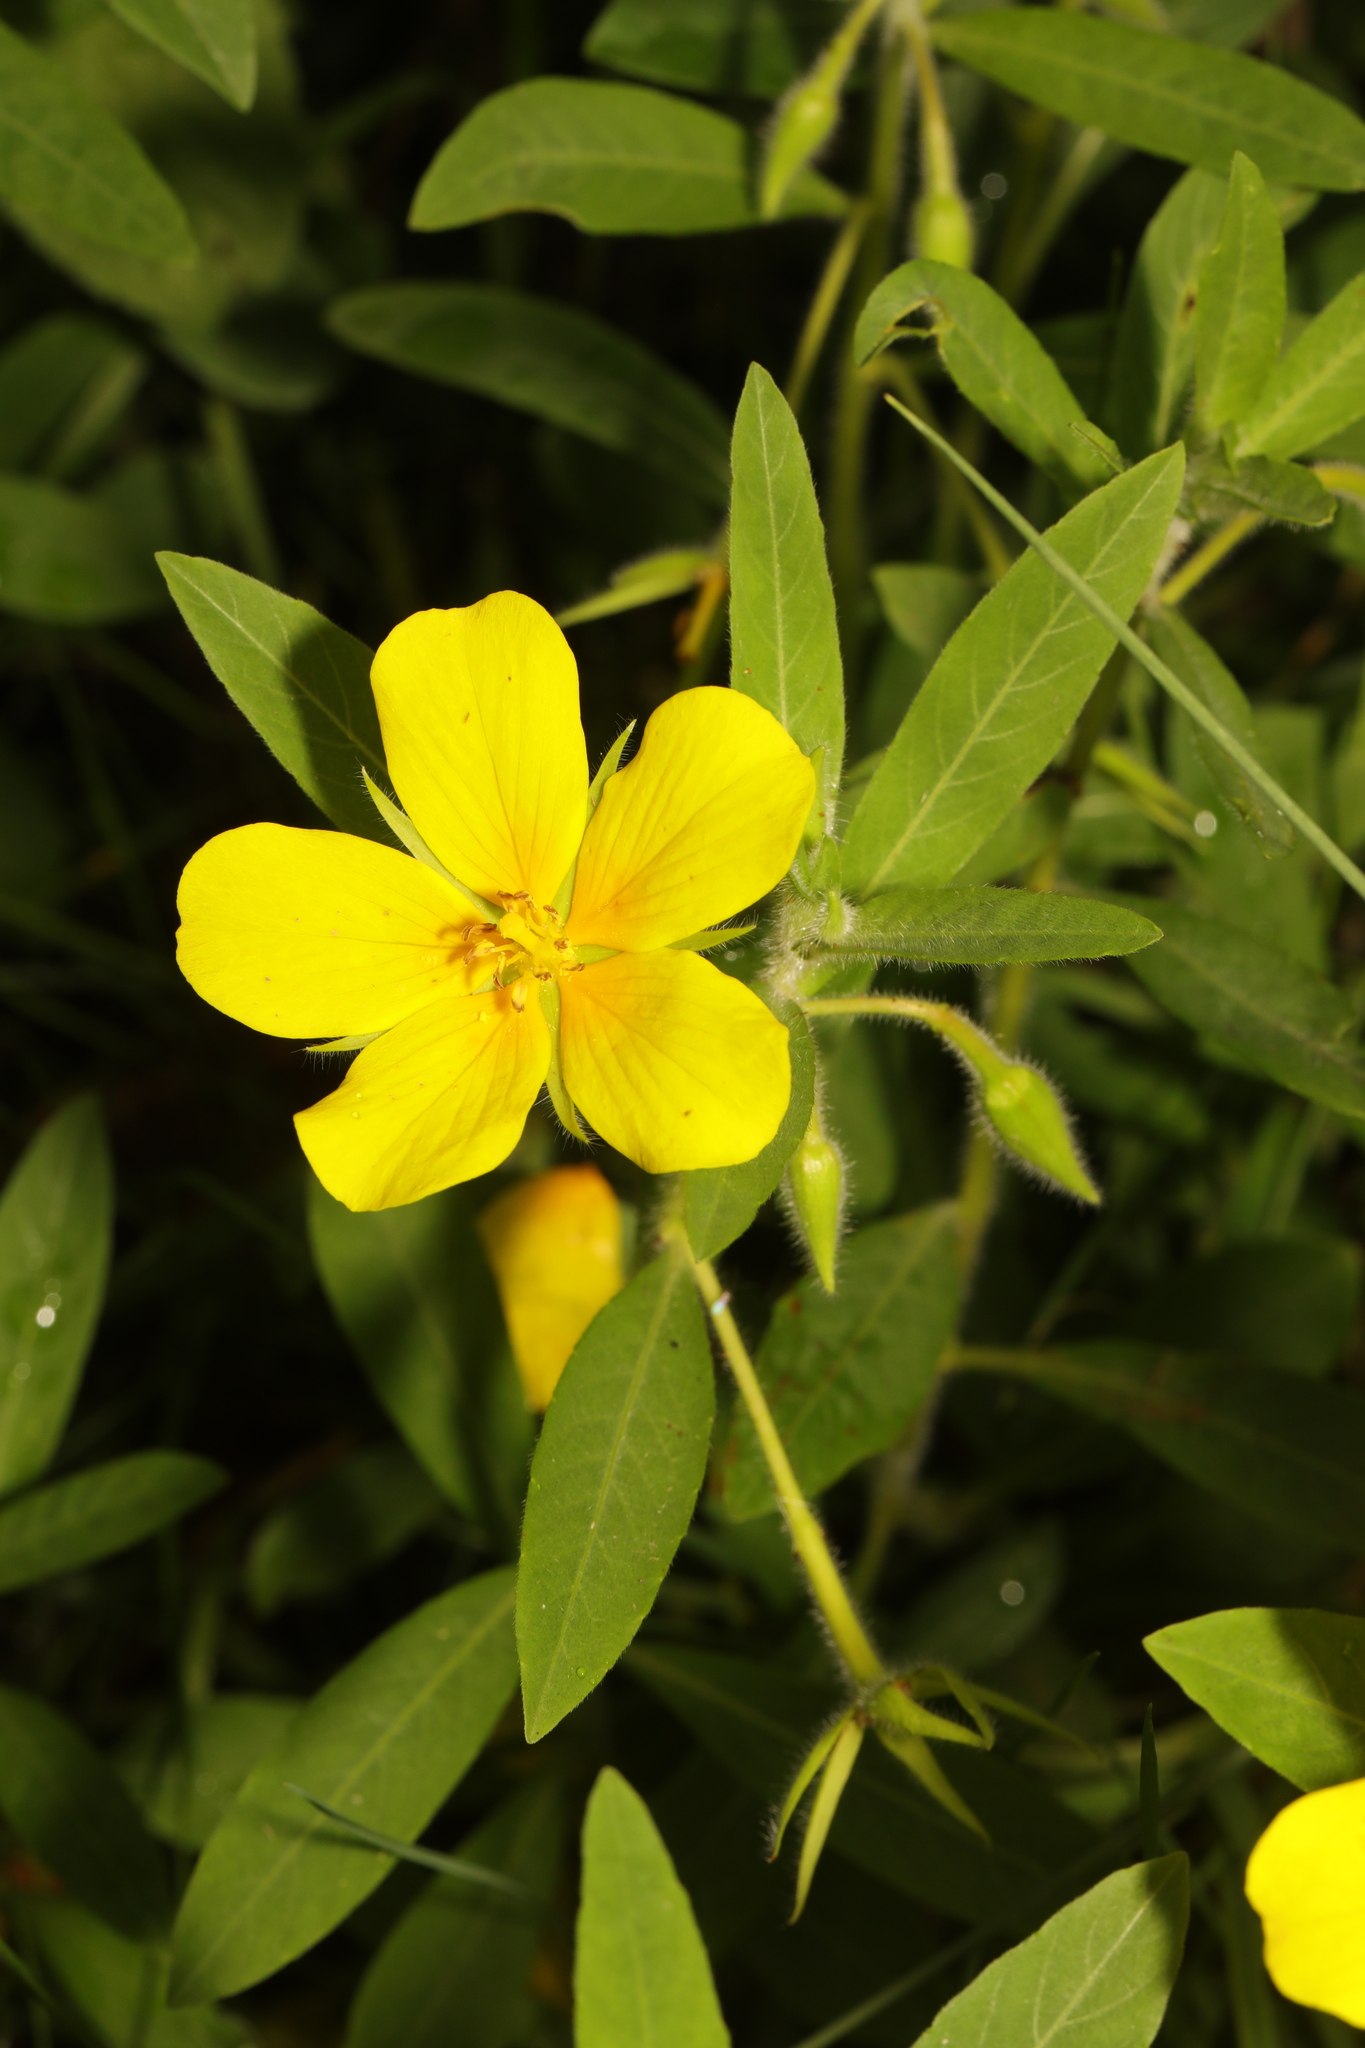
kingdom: Plantae
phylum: Tracheophyta
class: Magnoliopsida
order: Myrtales
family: Onagraceae
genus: Ludwigia
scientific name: Ludwigia hexapetala
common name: Water-primrose
